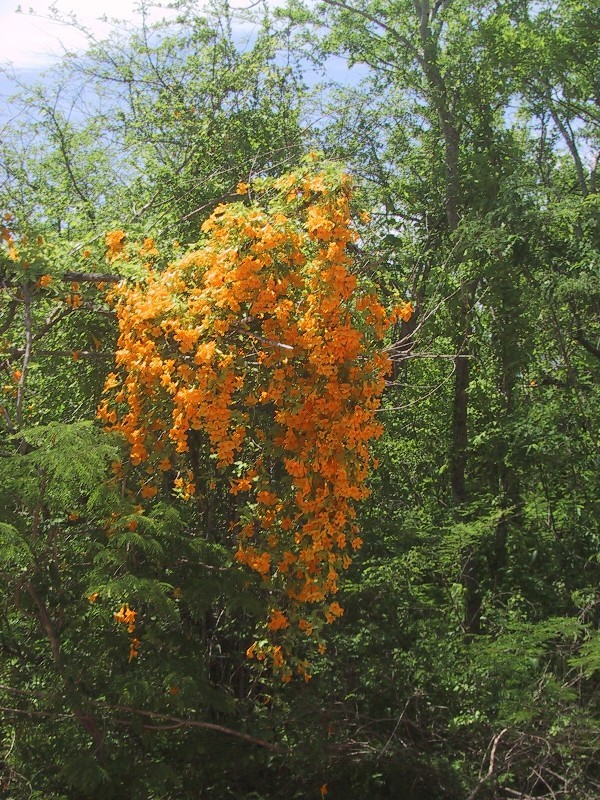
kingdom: Plantae
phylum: Tracheophyta
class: Magnoliopsida
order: Lamiales
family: Bignoniaceae
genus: Adenocalymma
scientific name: Adenocalymma inundatum
